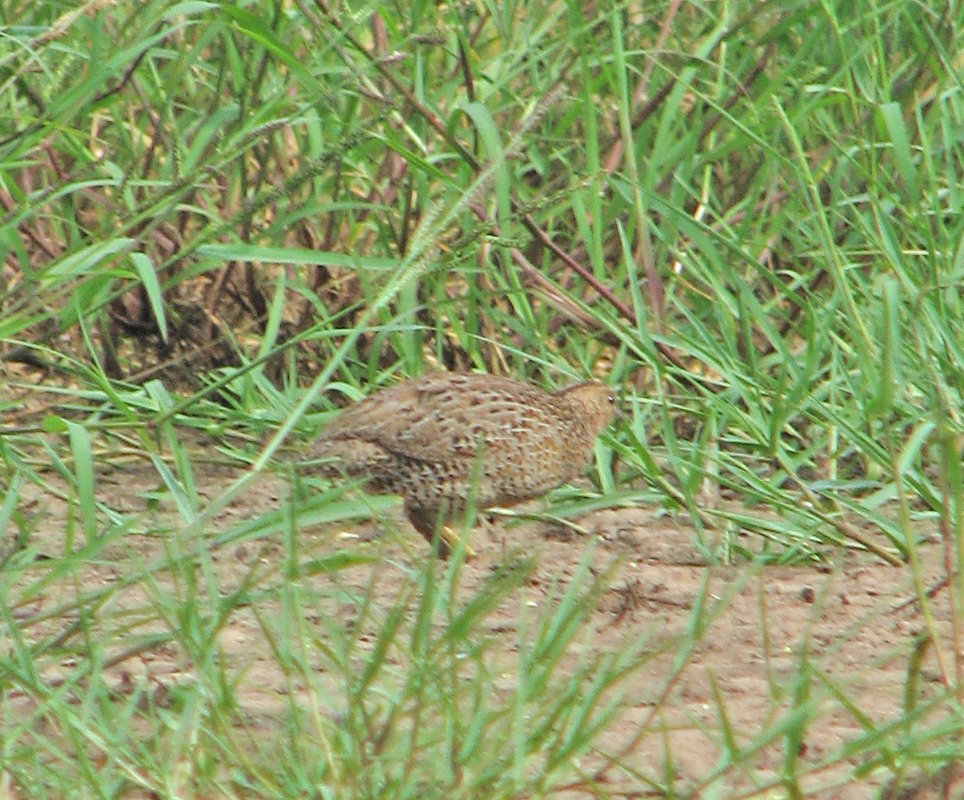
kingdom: Animalia
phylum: Chordata
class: Aves
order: Galliformes
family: Phasianidae
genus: Synoicus
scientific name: Synoicus ypsilophorus
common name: Brown quail
